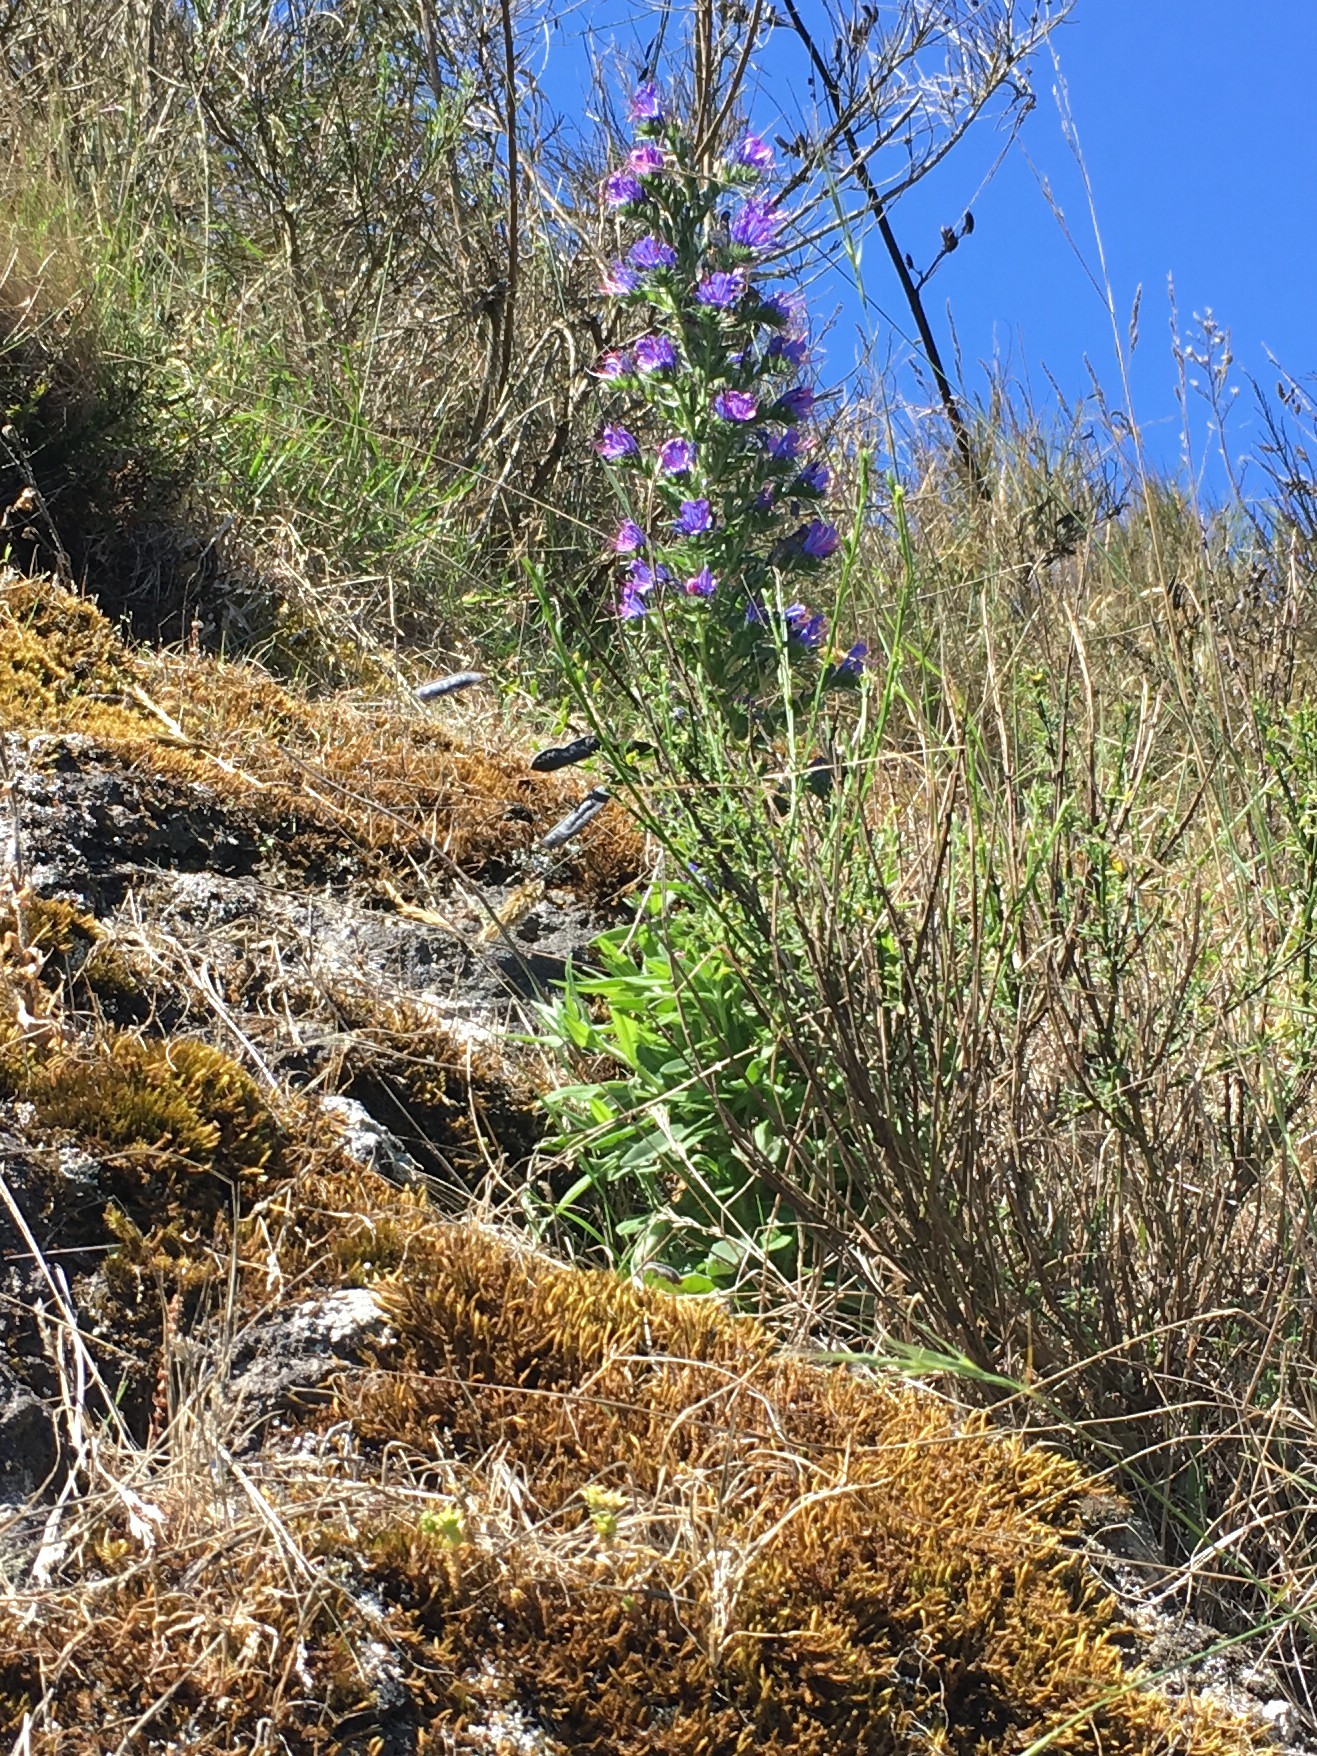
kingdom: Plantae
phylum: Tracheophyta
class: Magnoliopsida
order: Boraginales
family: Boraginaceae
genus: Echium
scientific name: Echium vulgare
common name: Common viper's bugloss
